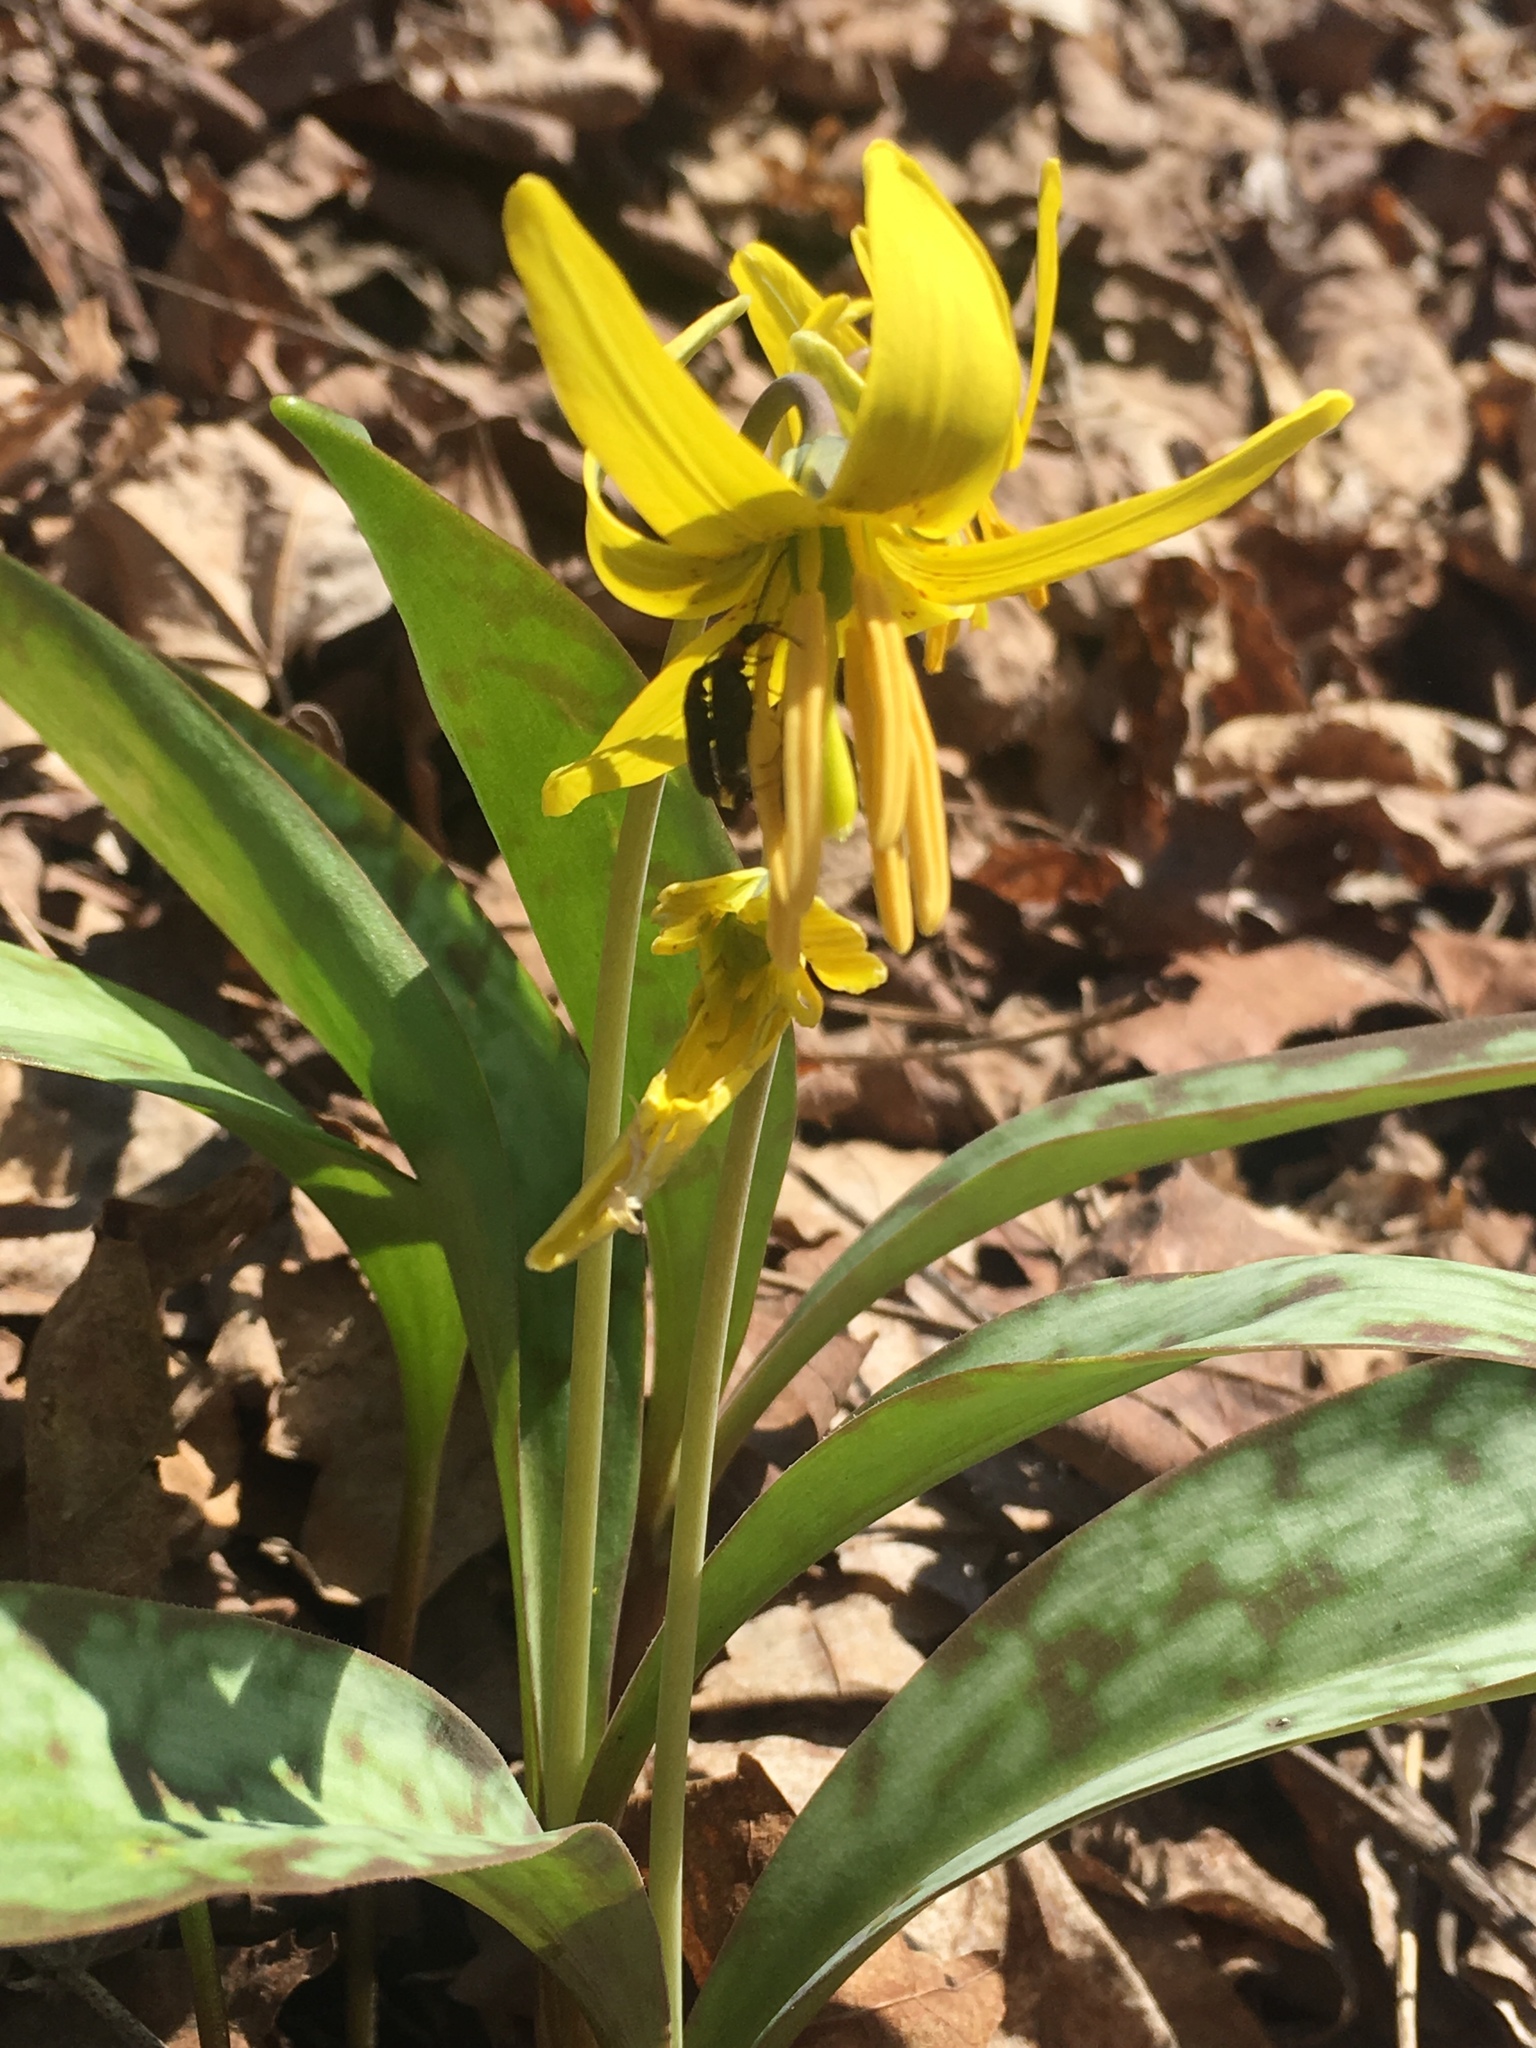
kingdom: Plantae
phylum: Tracheophyta
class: Liliopsida
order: Liliales
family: Liliaceae
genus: Erythronium
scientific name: Erythronium americanum
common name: Yellow adder's-tongue
